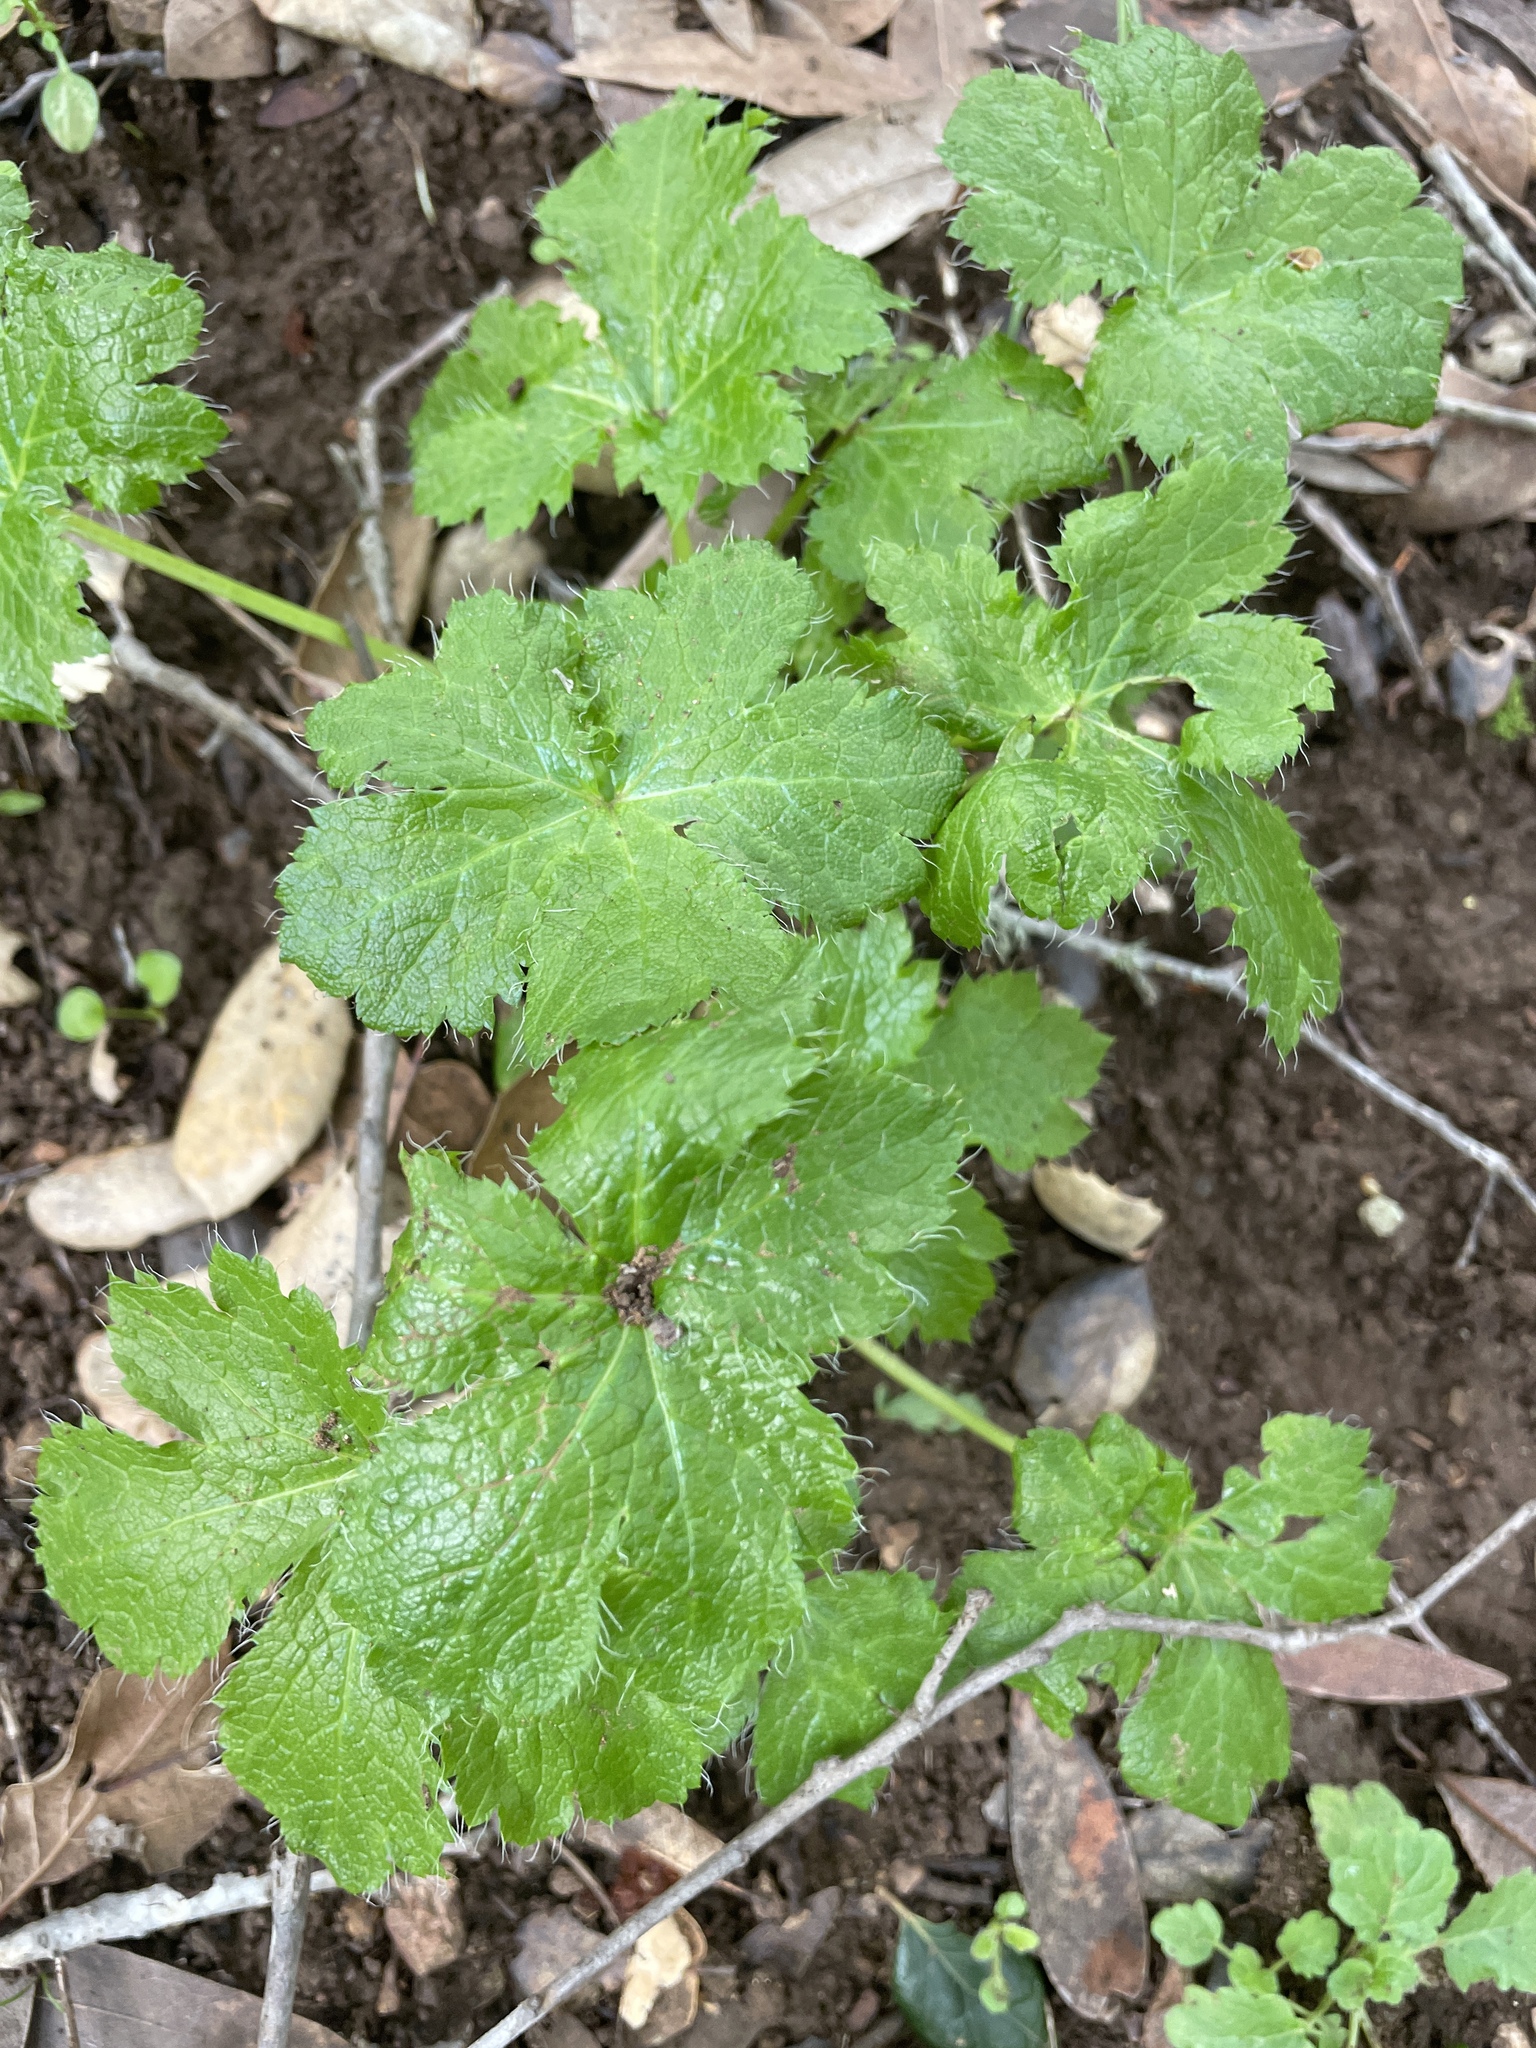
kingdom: Plantae
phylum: Tracheophyta
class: Magnoliopsida
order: Apiales
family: Apiaceae
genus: Sanicula
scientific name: Sanicula crassicaulis
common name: Western snakeroot
